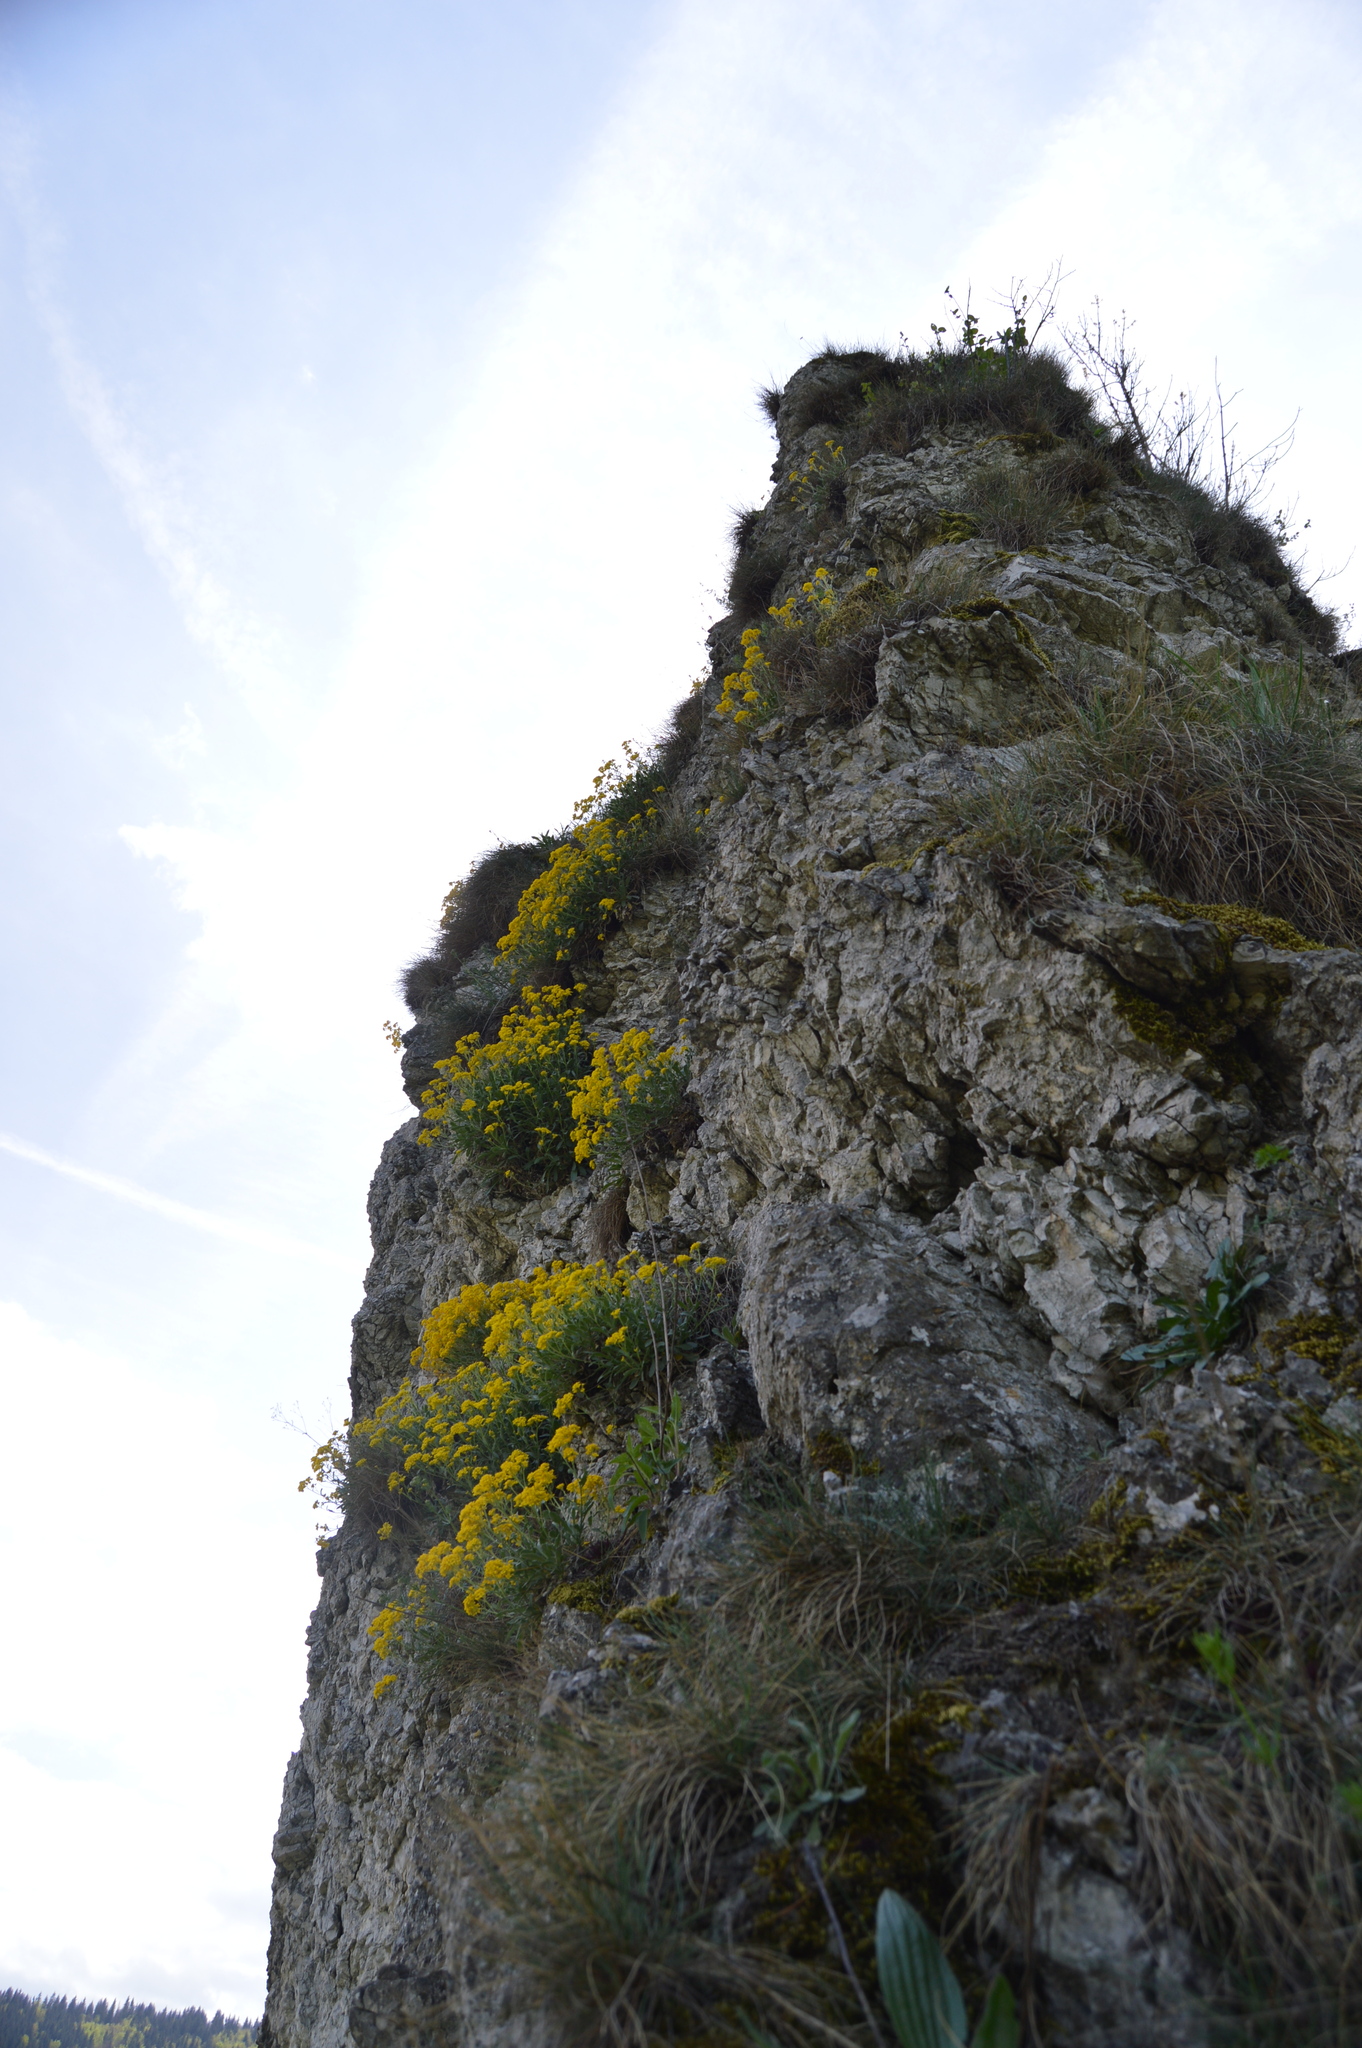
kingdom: Plantae
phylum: Tracheophyta
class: Magnoliopsida
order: Brassicales
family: Brassicaceae
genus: Aurinia
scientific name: Aurinia saxatilis
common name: Golden-tuft alyssum
